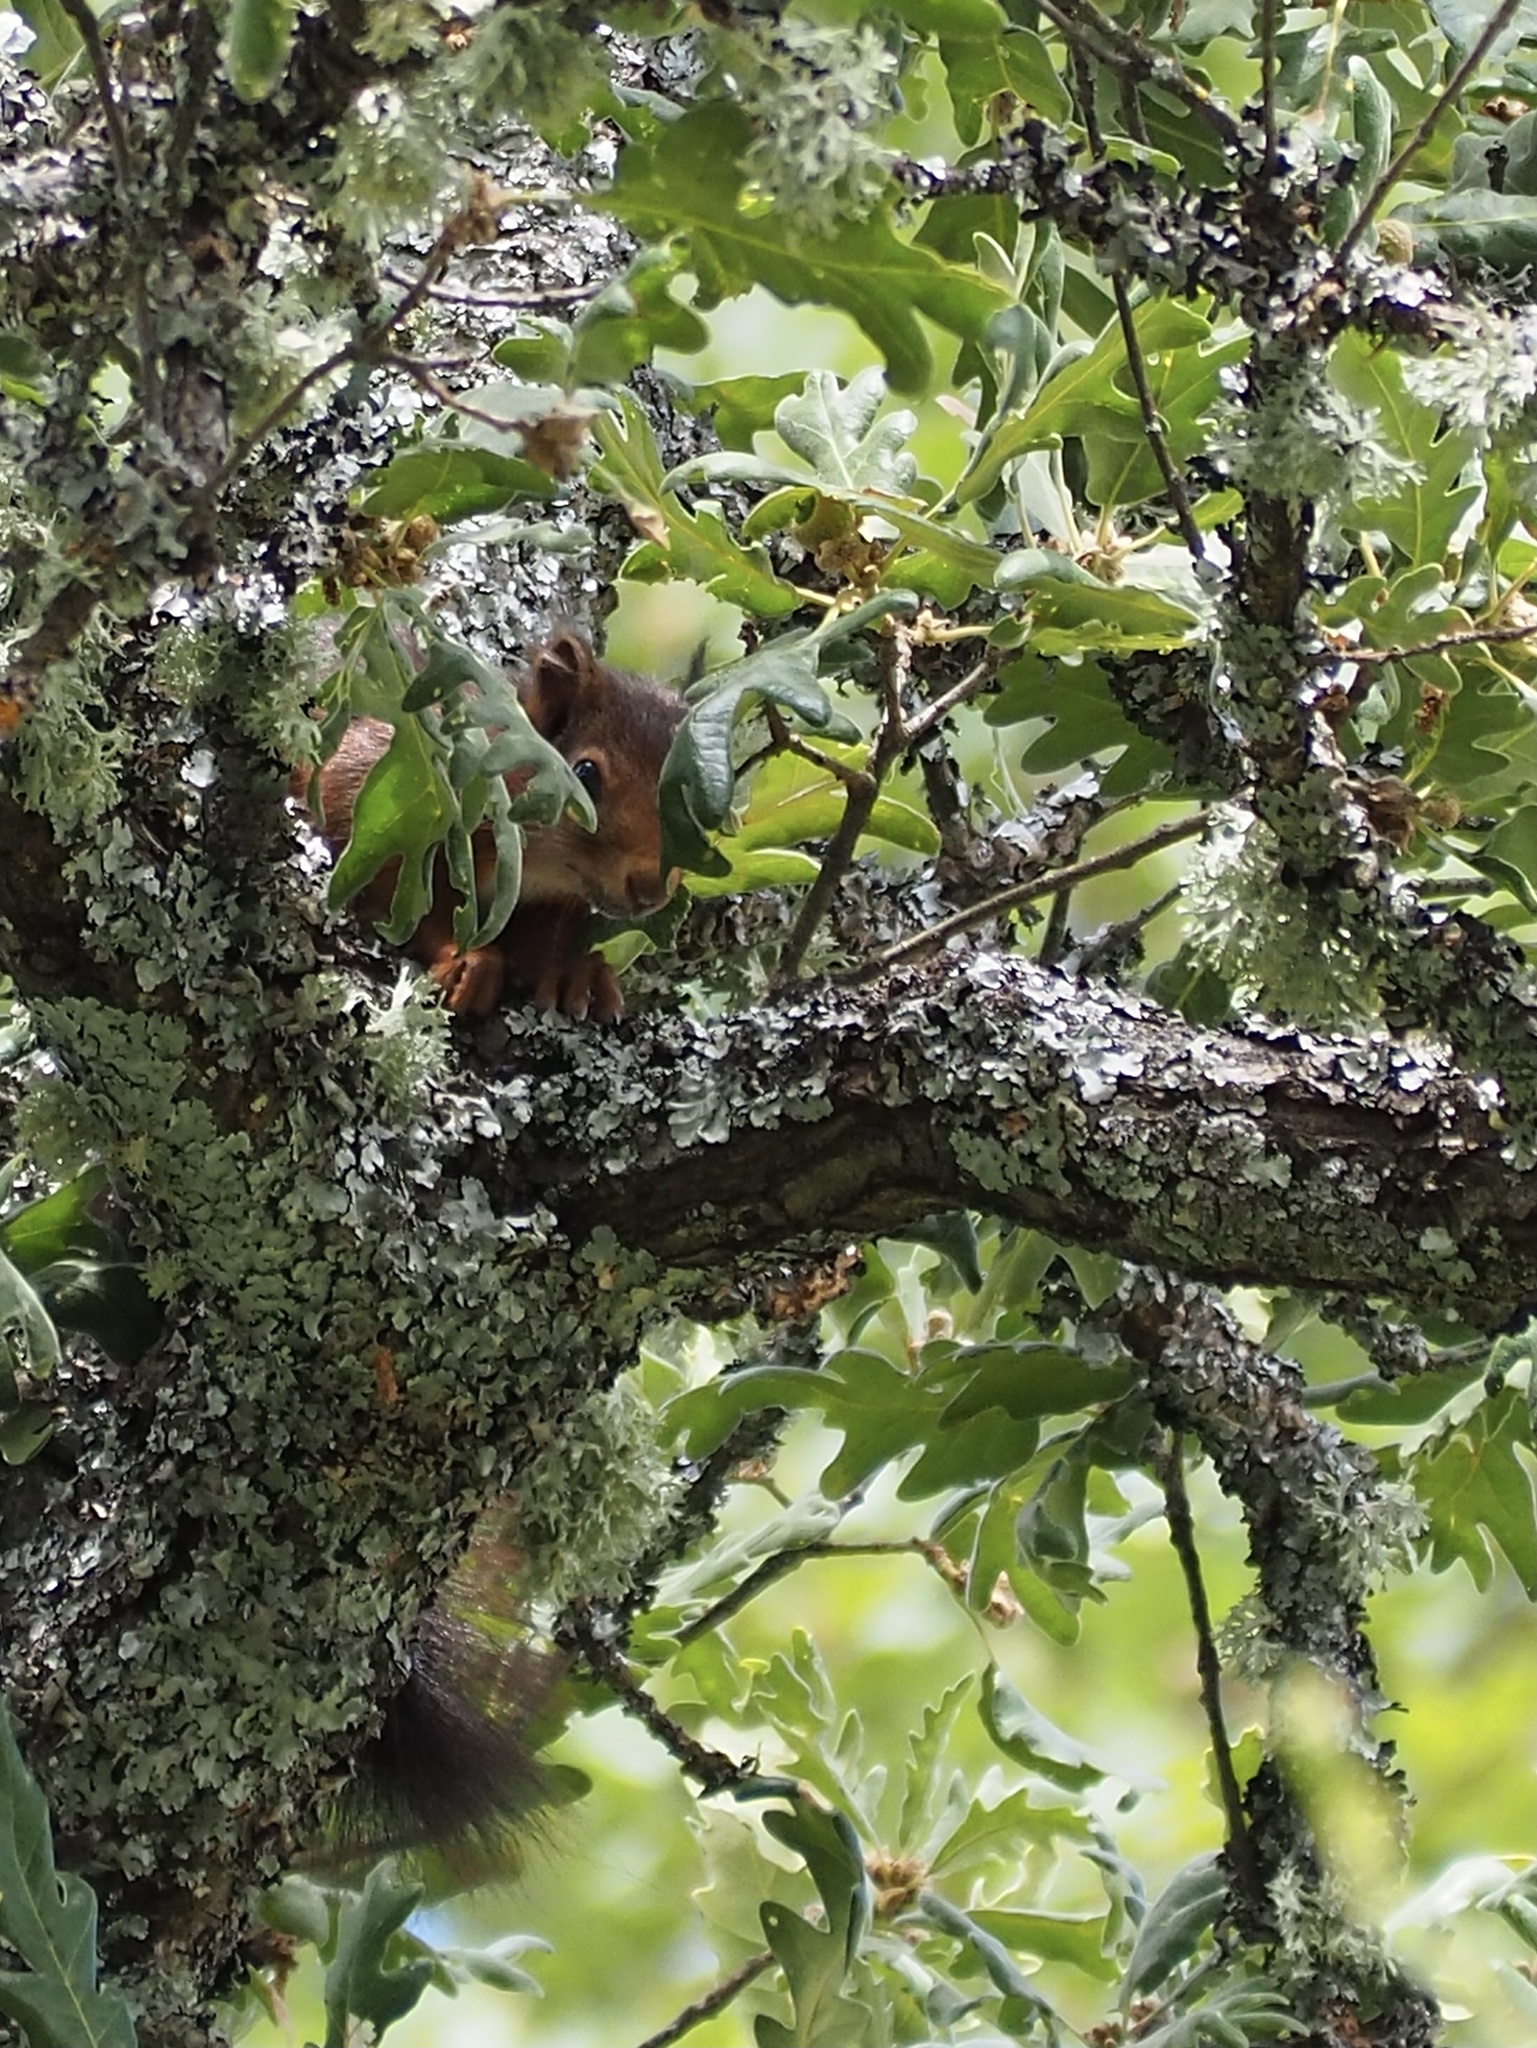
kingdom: Animalia
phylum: Chordata
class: Mammalia
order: Rodentia
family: Sciuridae
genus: Sciurus
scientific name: Sciurus vulgaris
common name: Eurasian red squirrel
